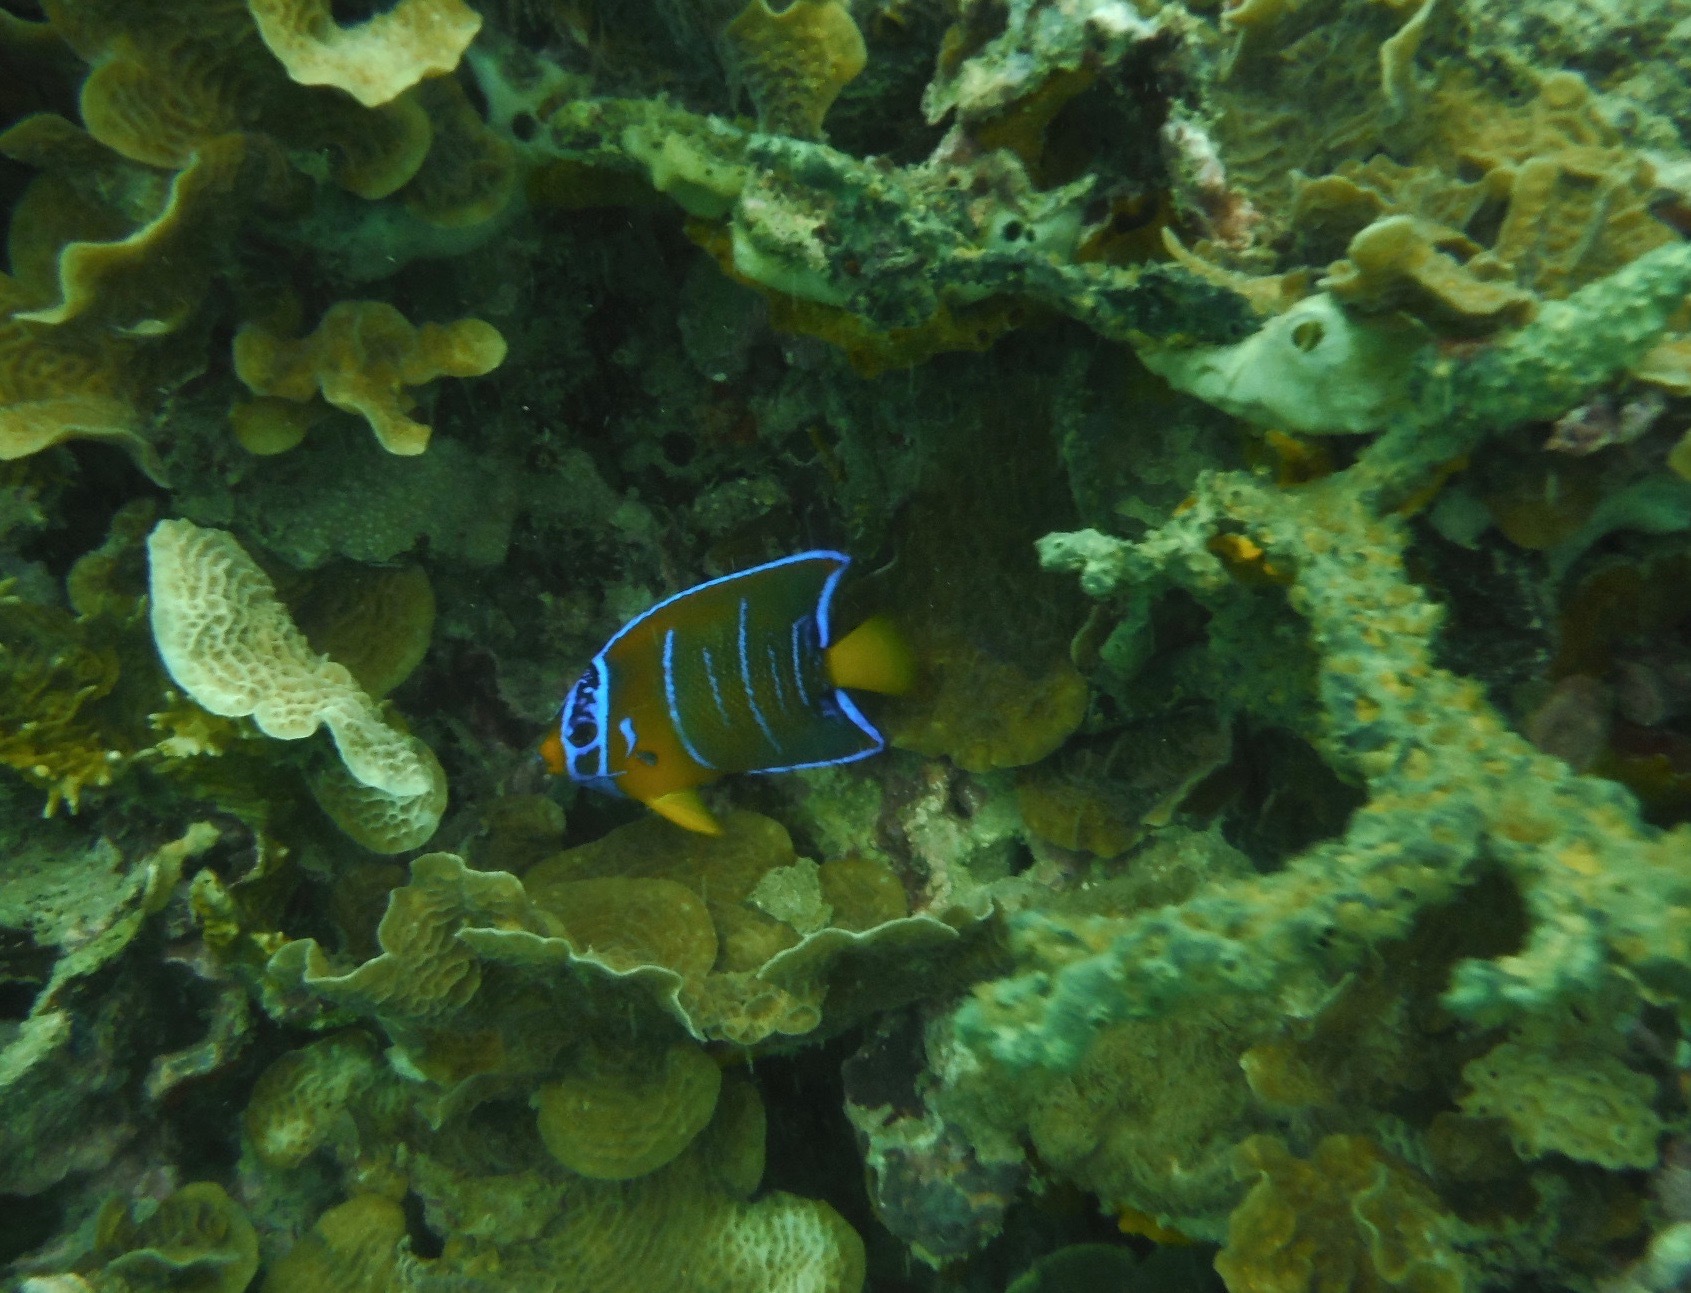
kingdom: Animalia
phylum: Chordata
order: Perciformes
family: Pomacanthidae
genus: Holacanthus
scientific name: Holacanthus ciliaris
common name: Queen angelfish
